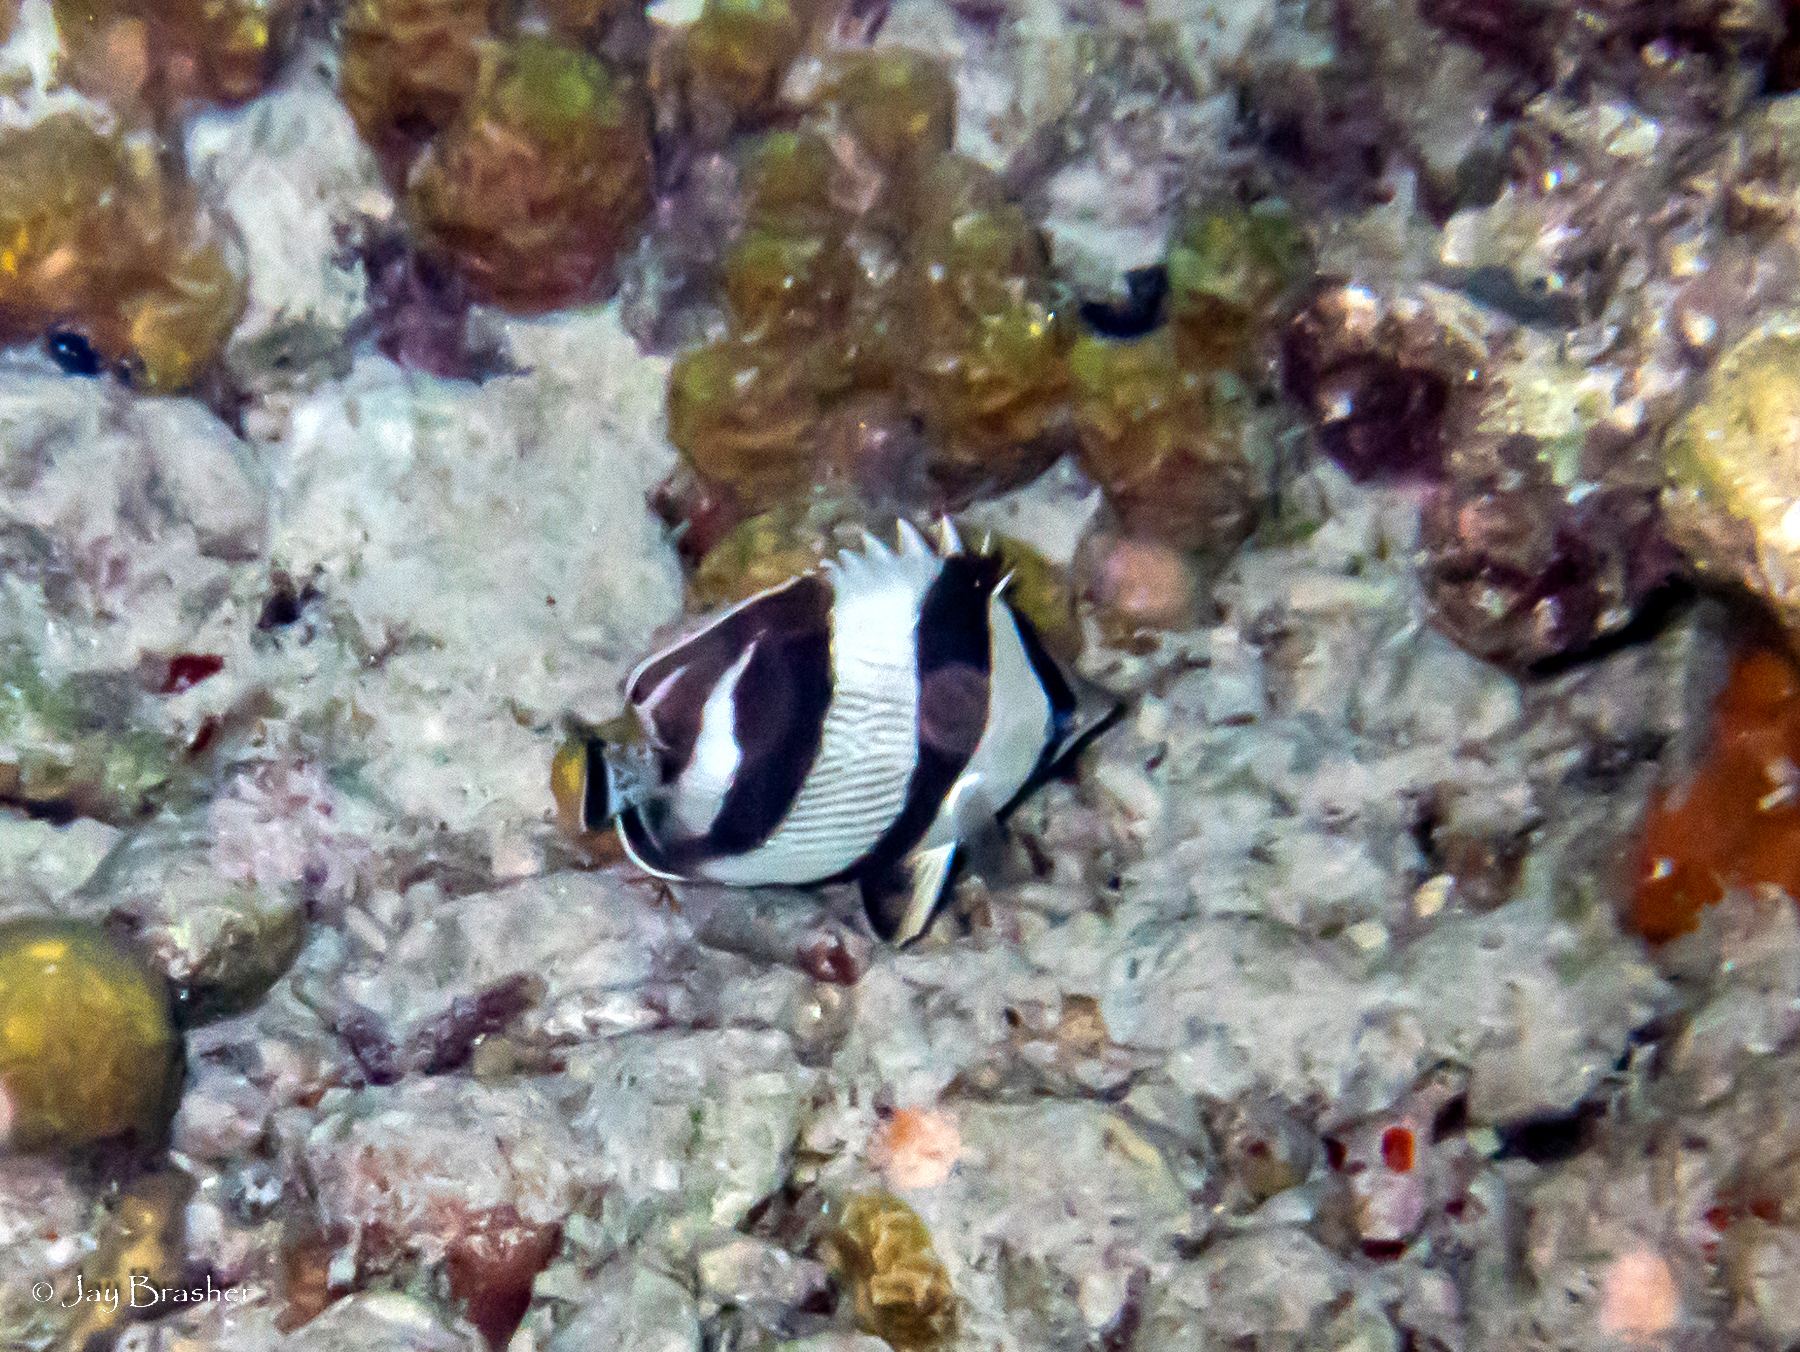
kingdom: Animalia
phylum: Chordata
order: Perciformes
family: Chaetodontidae
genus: Chaetodon
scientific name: Chaetodon striatus
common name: Banded butterflyfish
